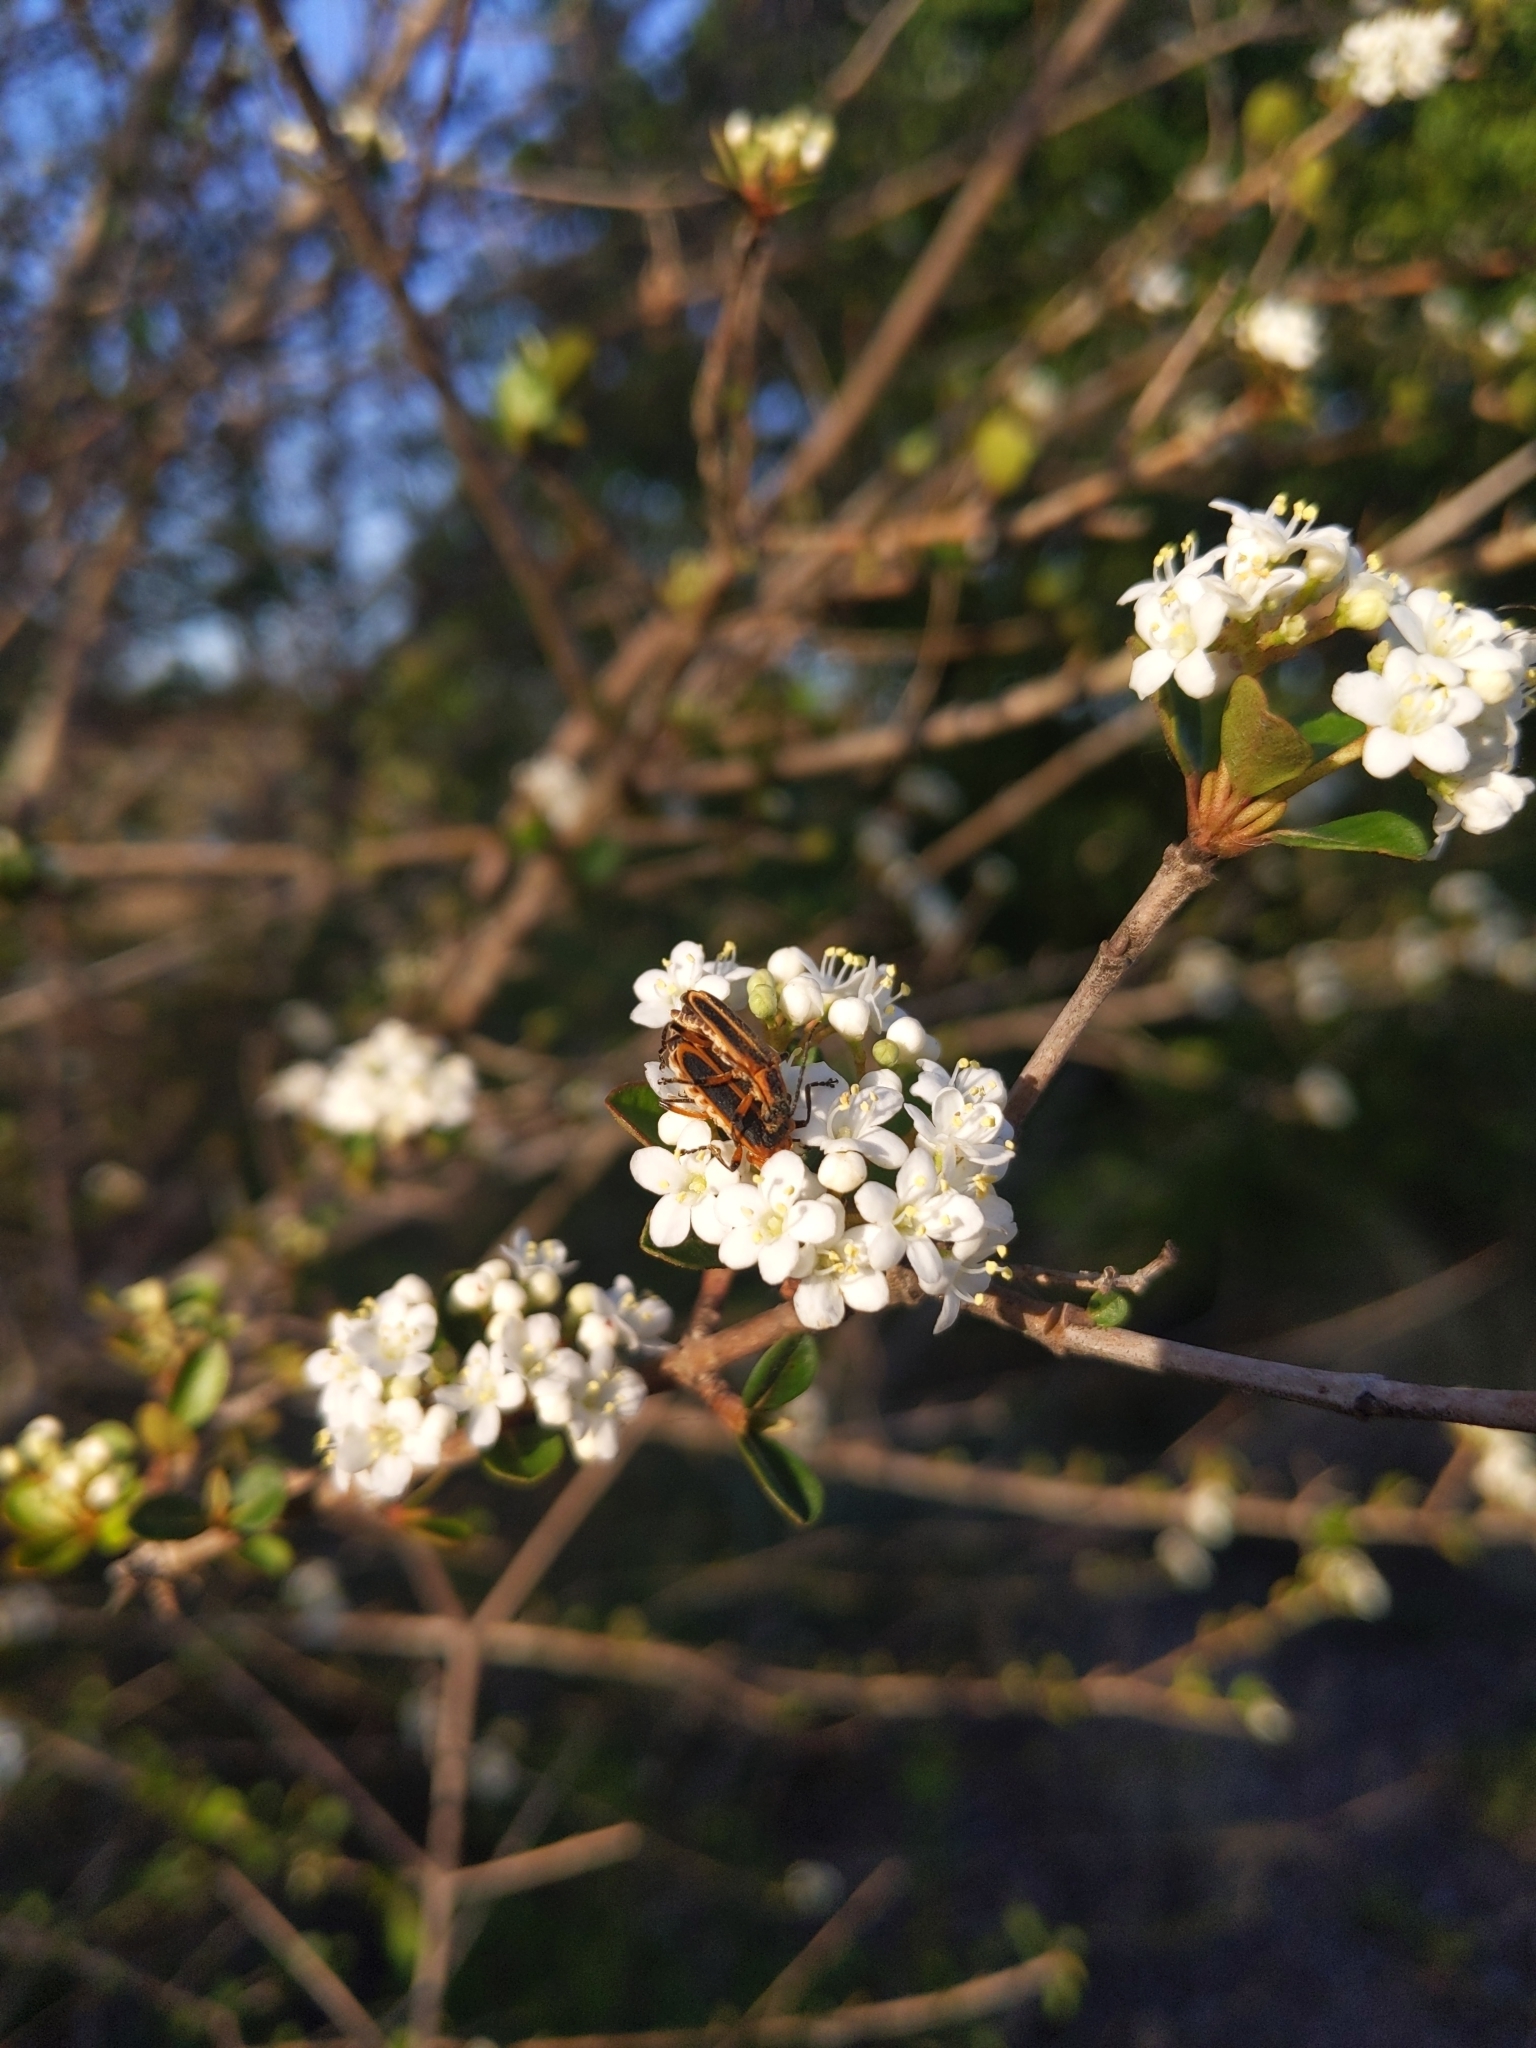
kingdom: Animalia
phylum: Arthropoda
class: Insecta
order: Coleoptera
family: Cantharidae
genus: Chauliognathus
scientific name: Chauliognathus marginatus
